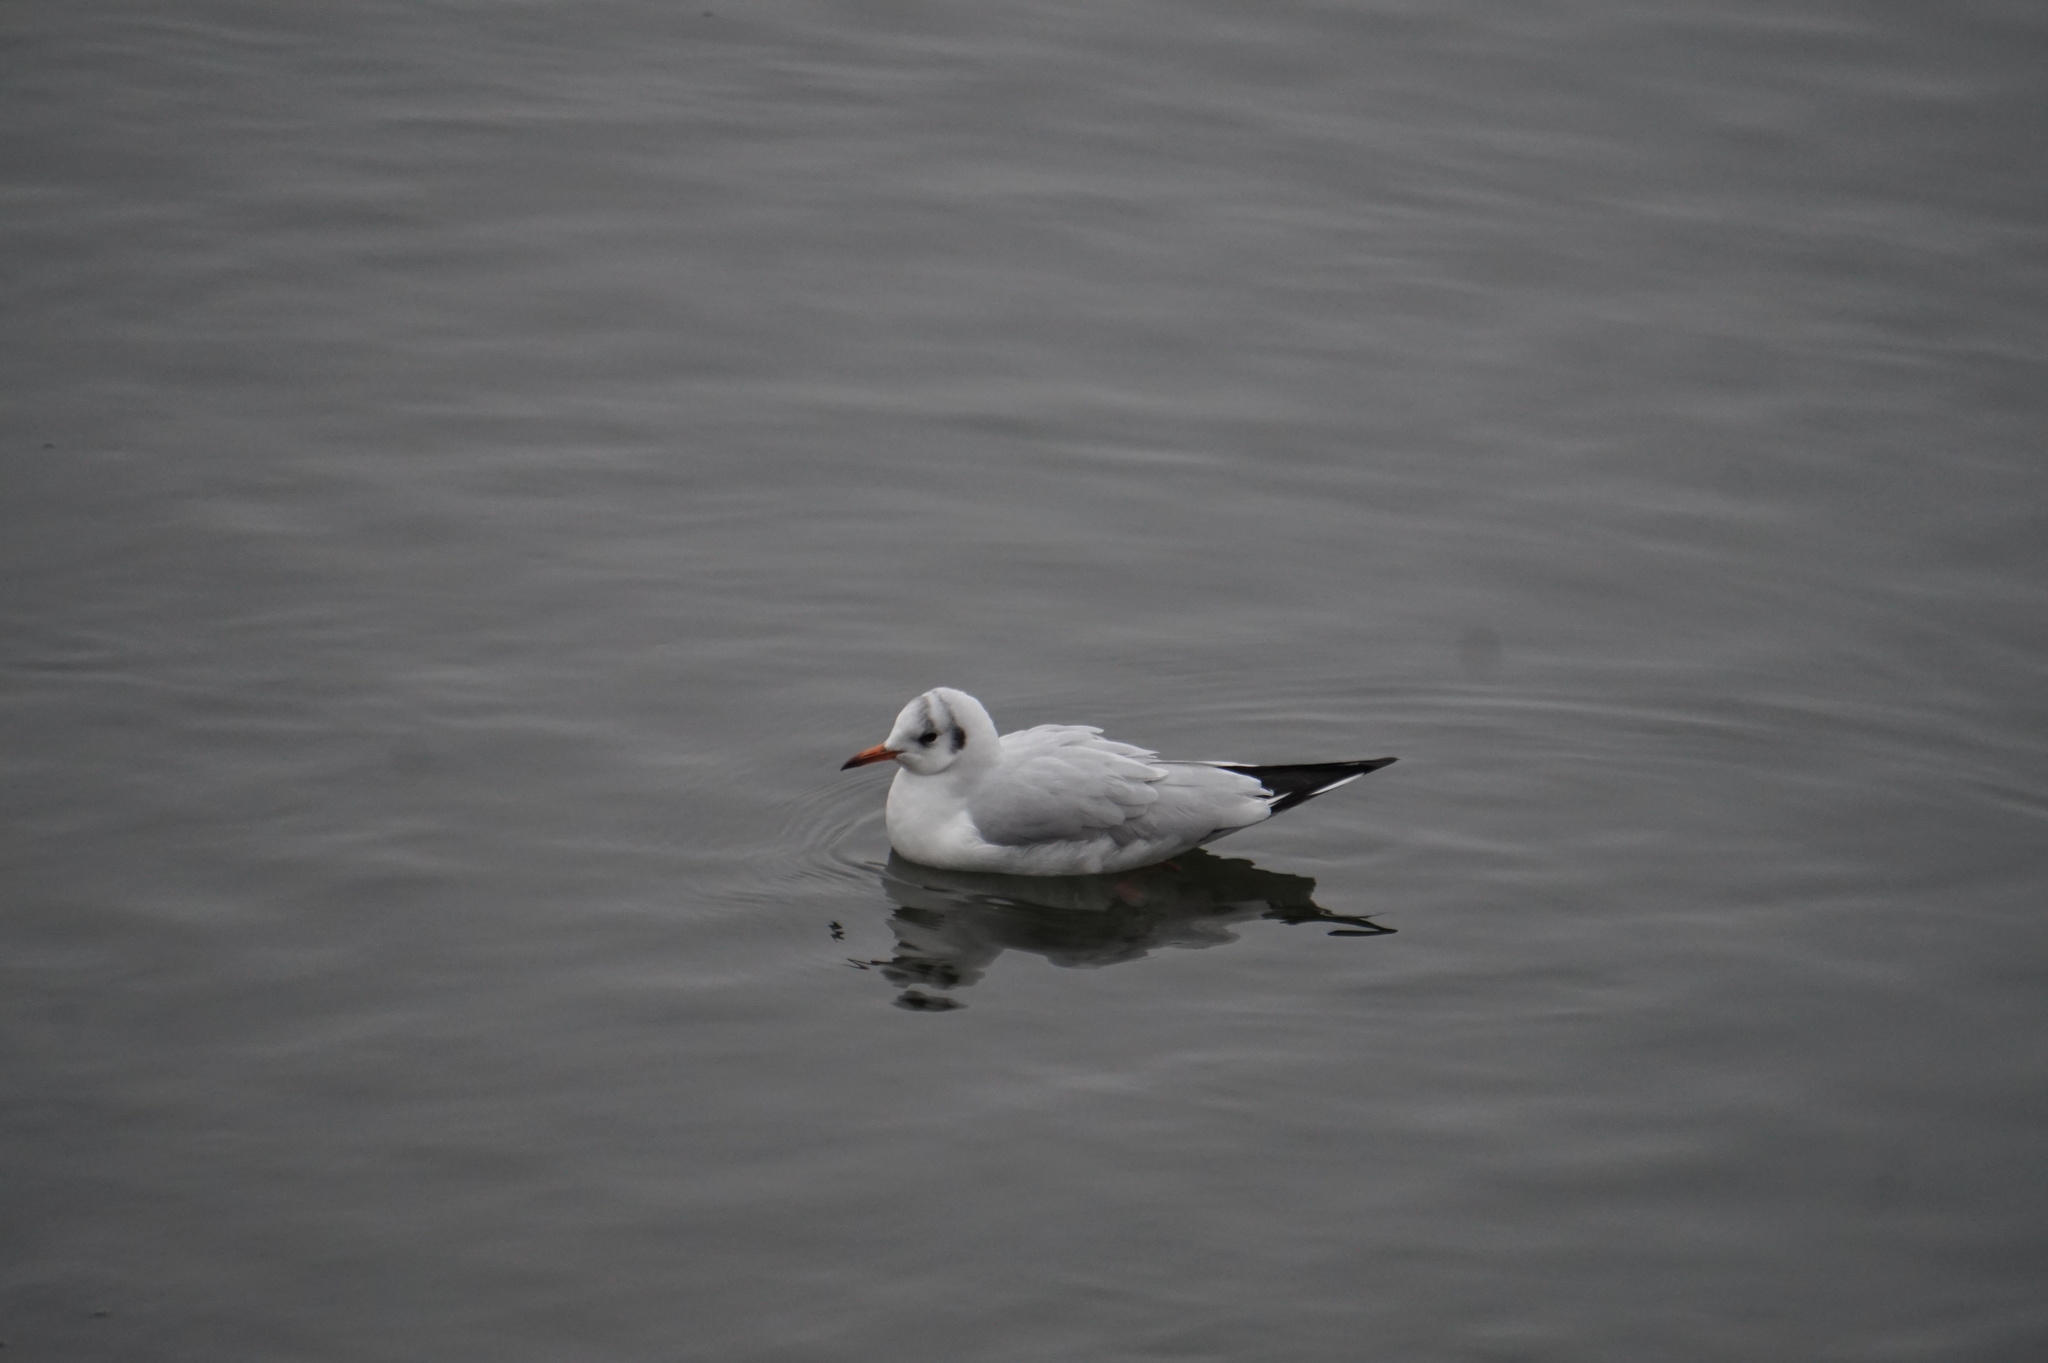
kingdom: Animalia
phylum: Chordata
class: Aves
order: Charadriiformes
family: Laridae
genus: Chroicocephalus
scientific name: Chroicocephalus ridibundus
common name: Black-headed gull
